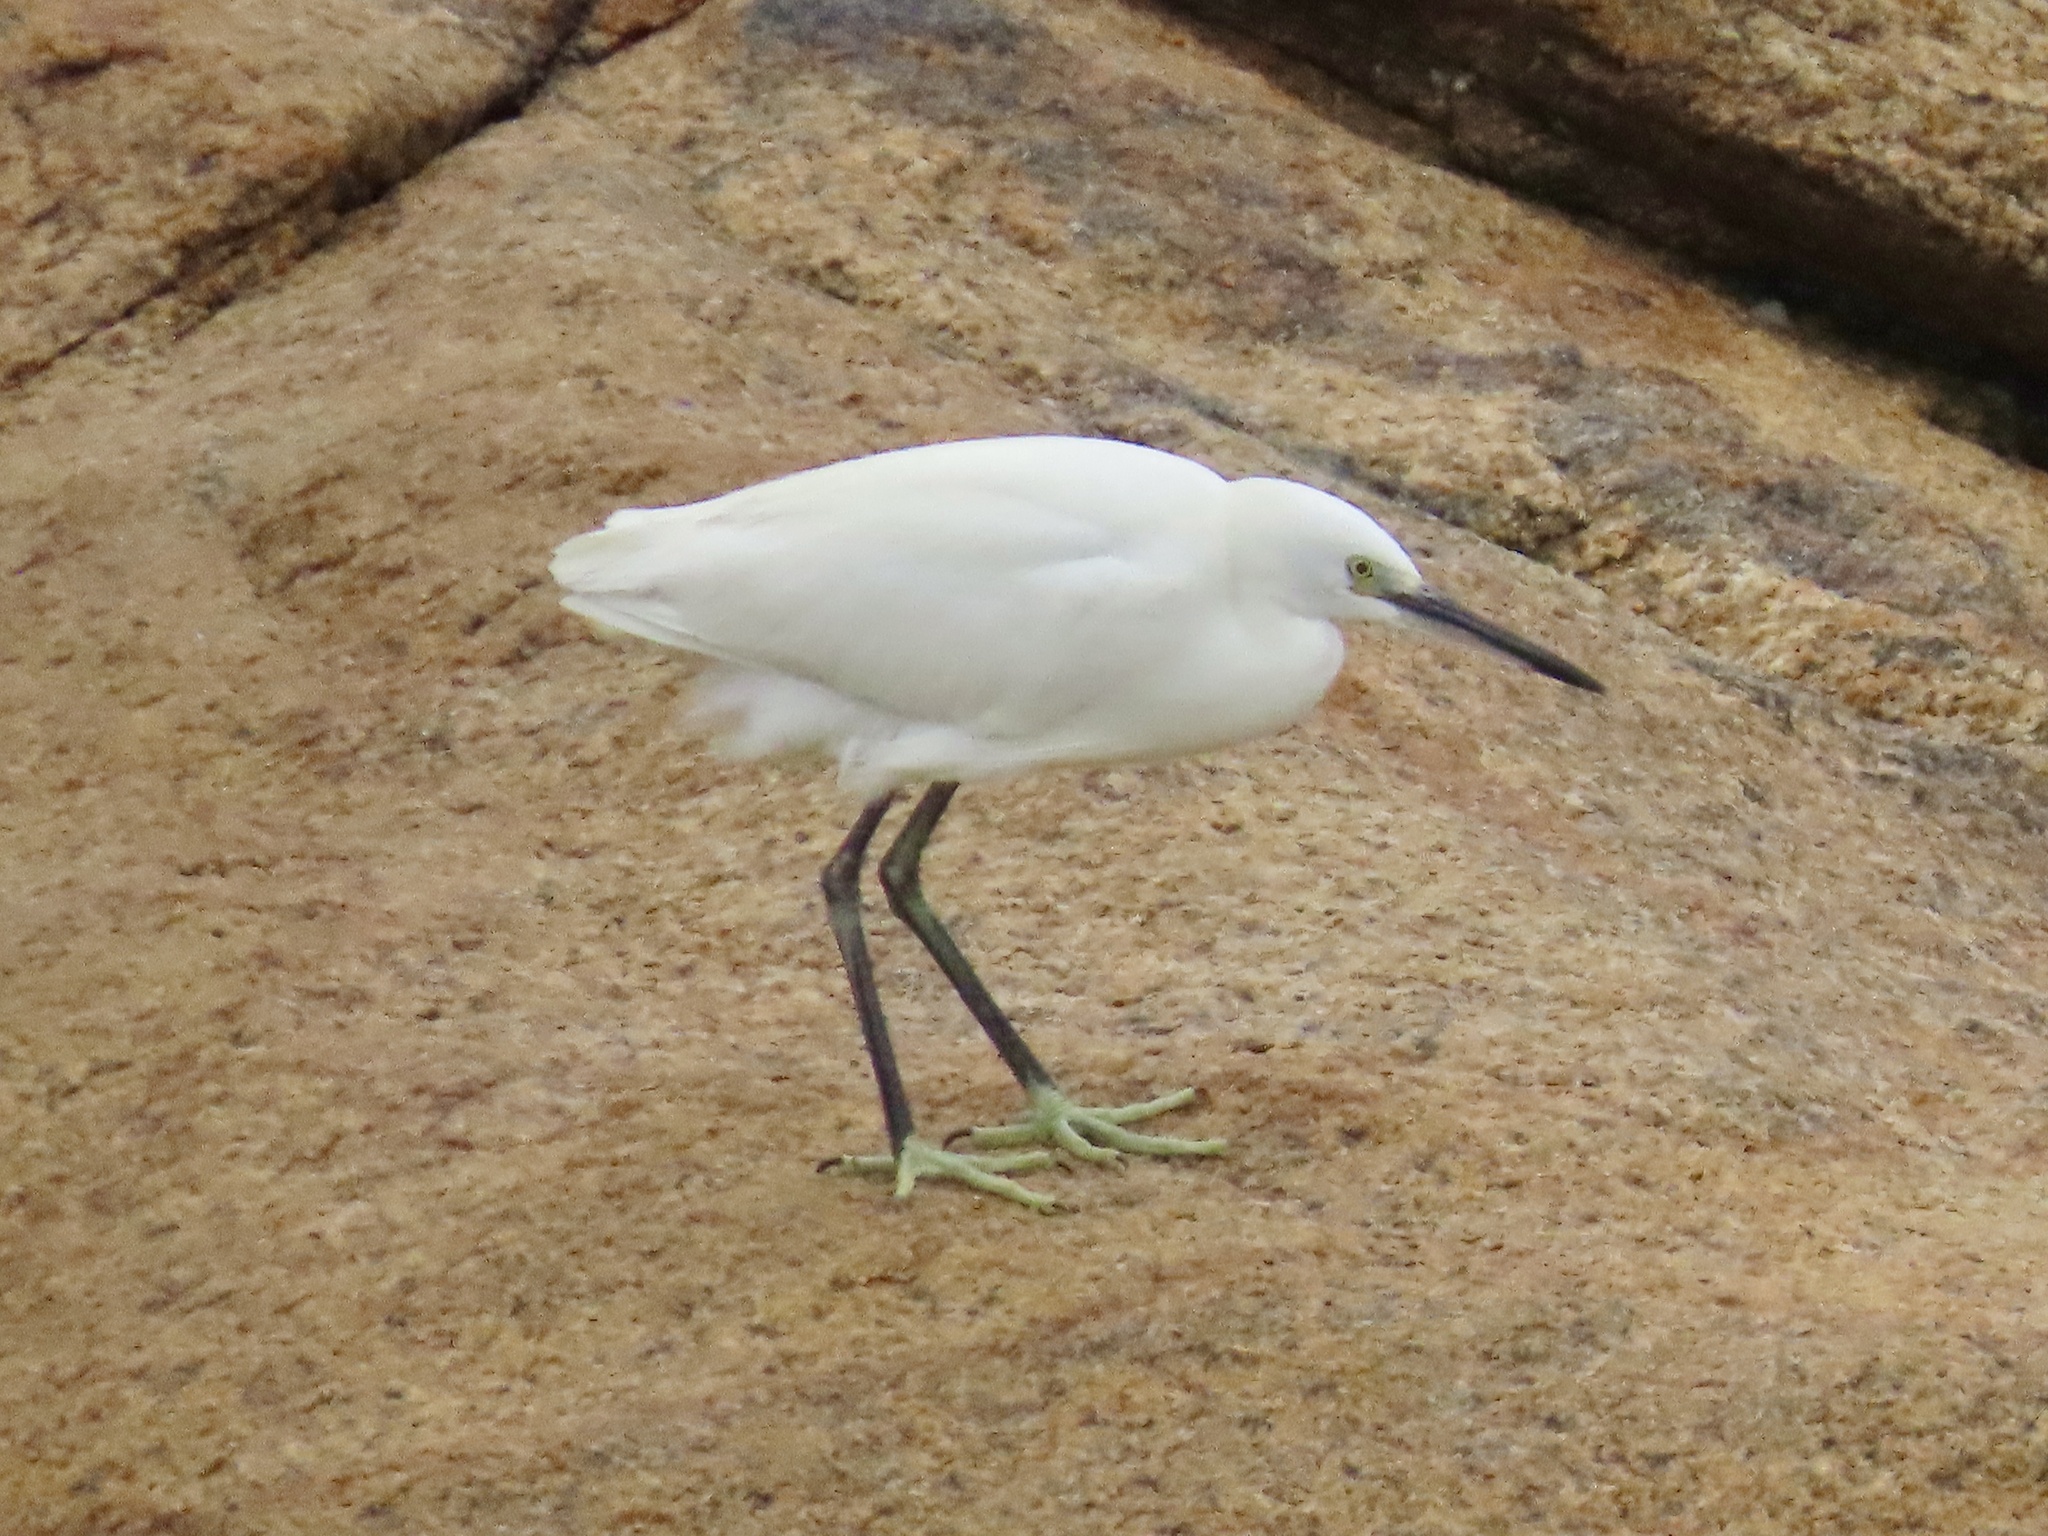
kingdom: Animalia
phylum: Chordata
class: Aves
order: Pelecaniformes
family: Ardeidae
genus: Egretta
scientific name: Egretta garzetta
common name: Little egret
